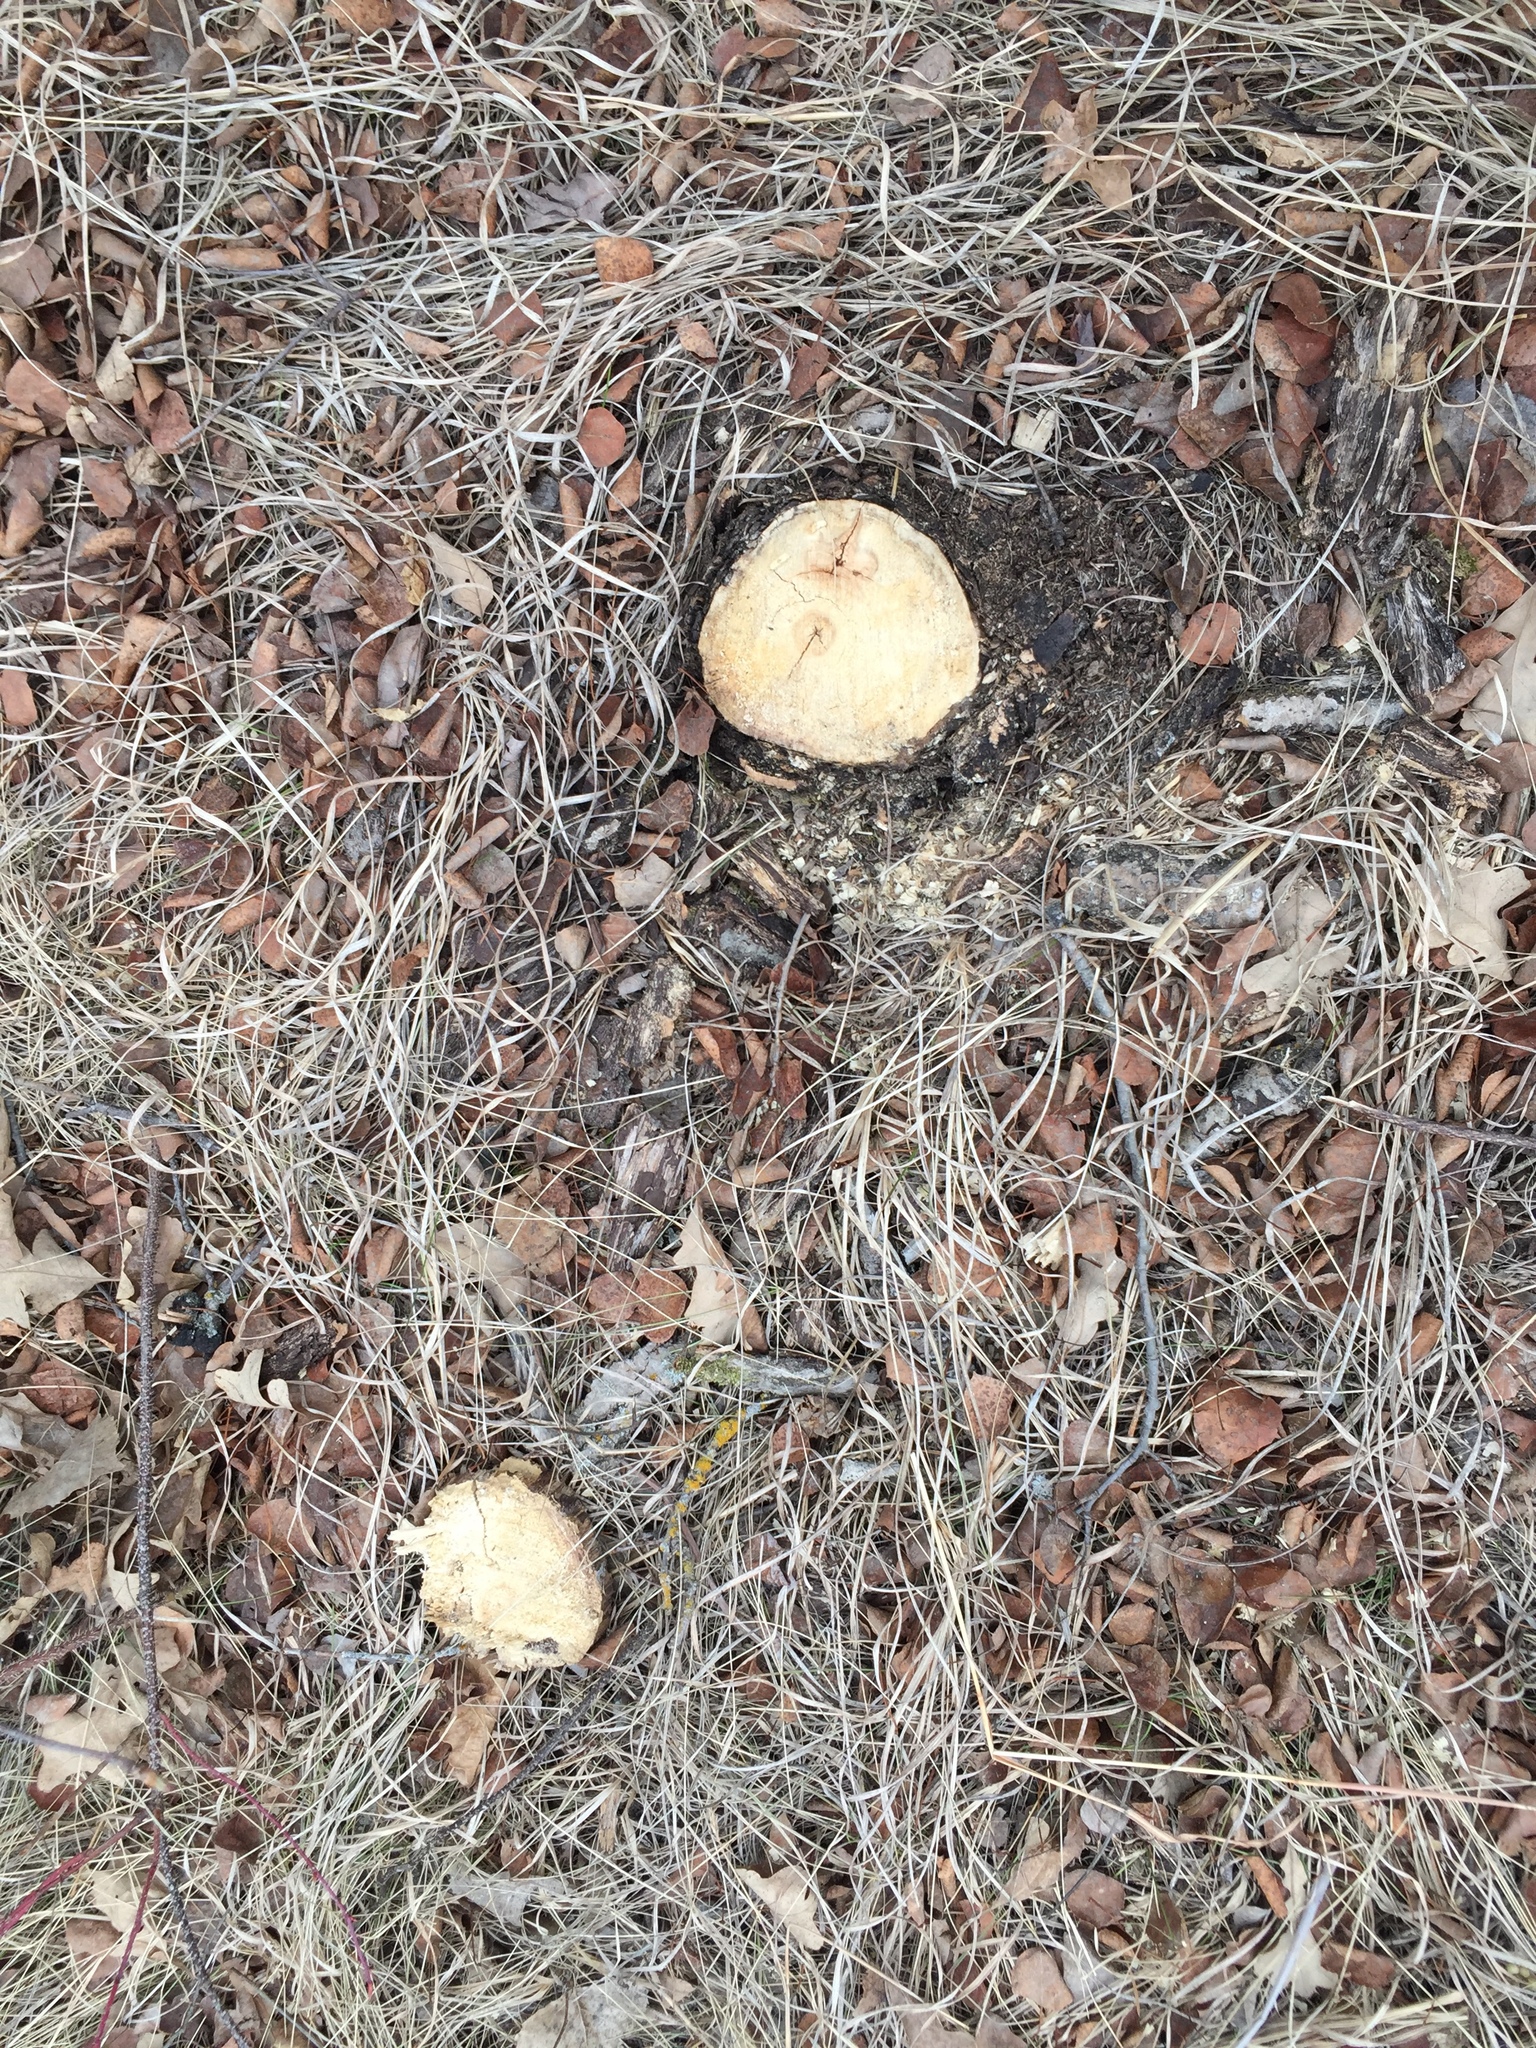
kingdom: Plantae
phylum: Tracheophyta
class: Magnoliopsida
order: Fagales
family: Fagaceae
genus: Quercus
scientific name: Quercus macrocarpa
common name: Bur oak
